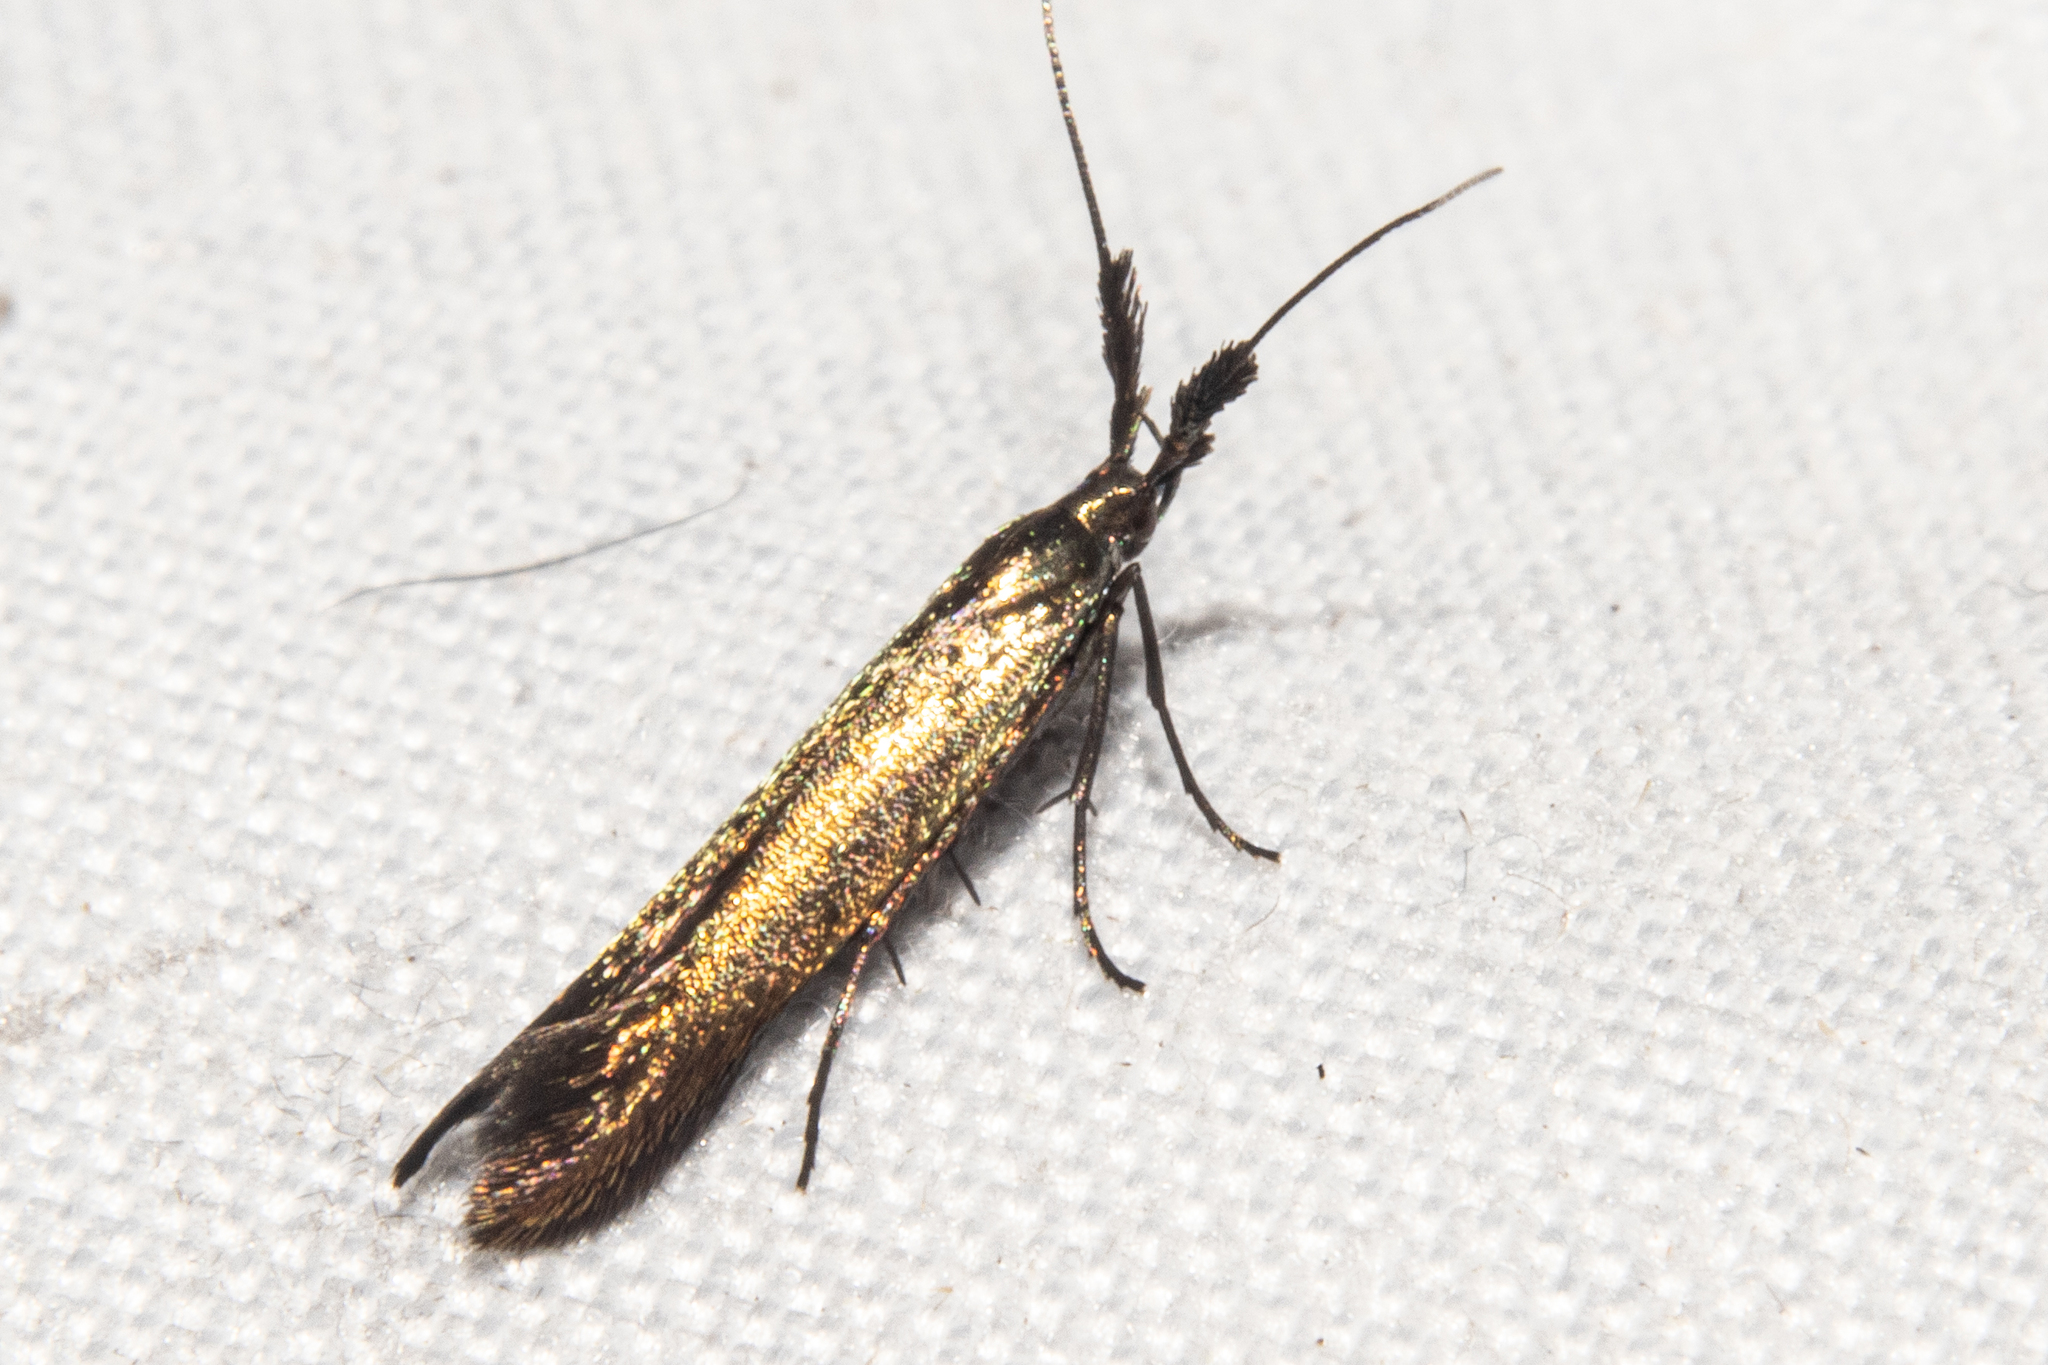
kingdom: Animalia
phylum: Arthropoda
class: Insecta
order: Lepidoptera
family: Coleophoridae
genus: Coleophora
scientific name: Coleophora deauratella
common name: Red-clover case-bearer
